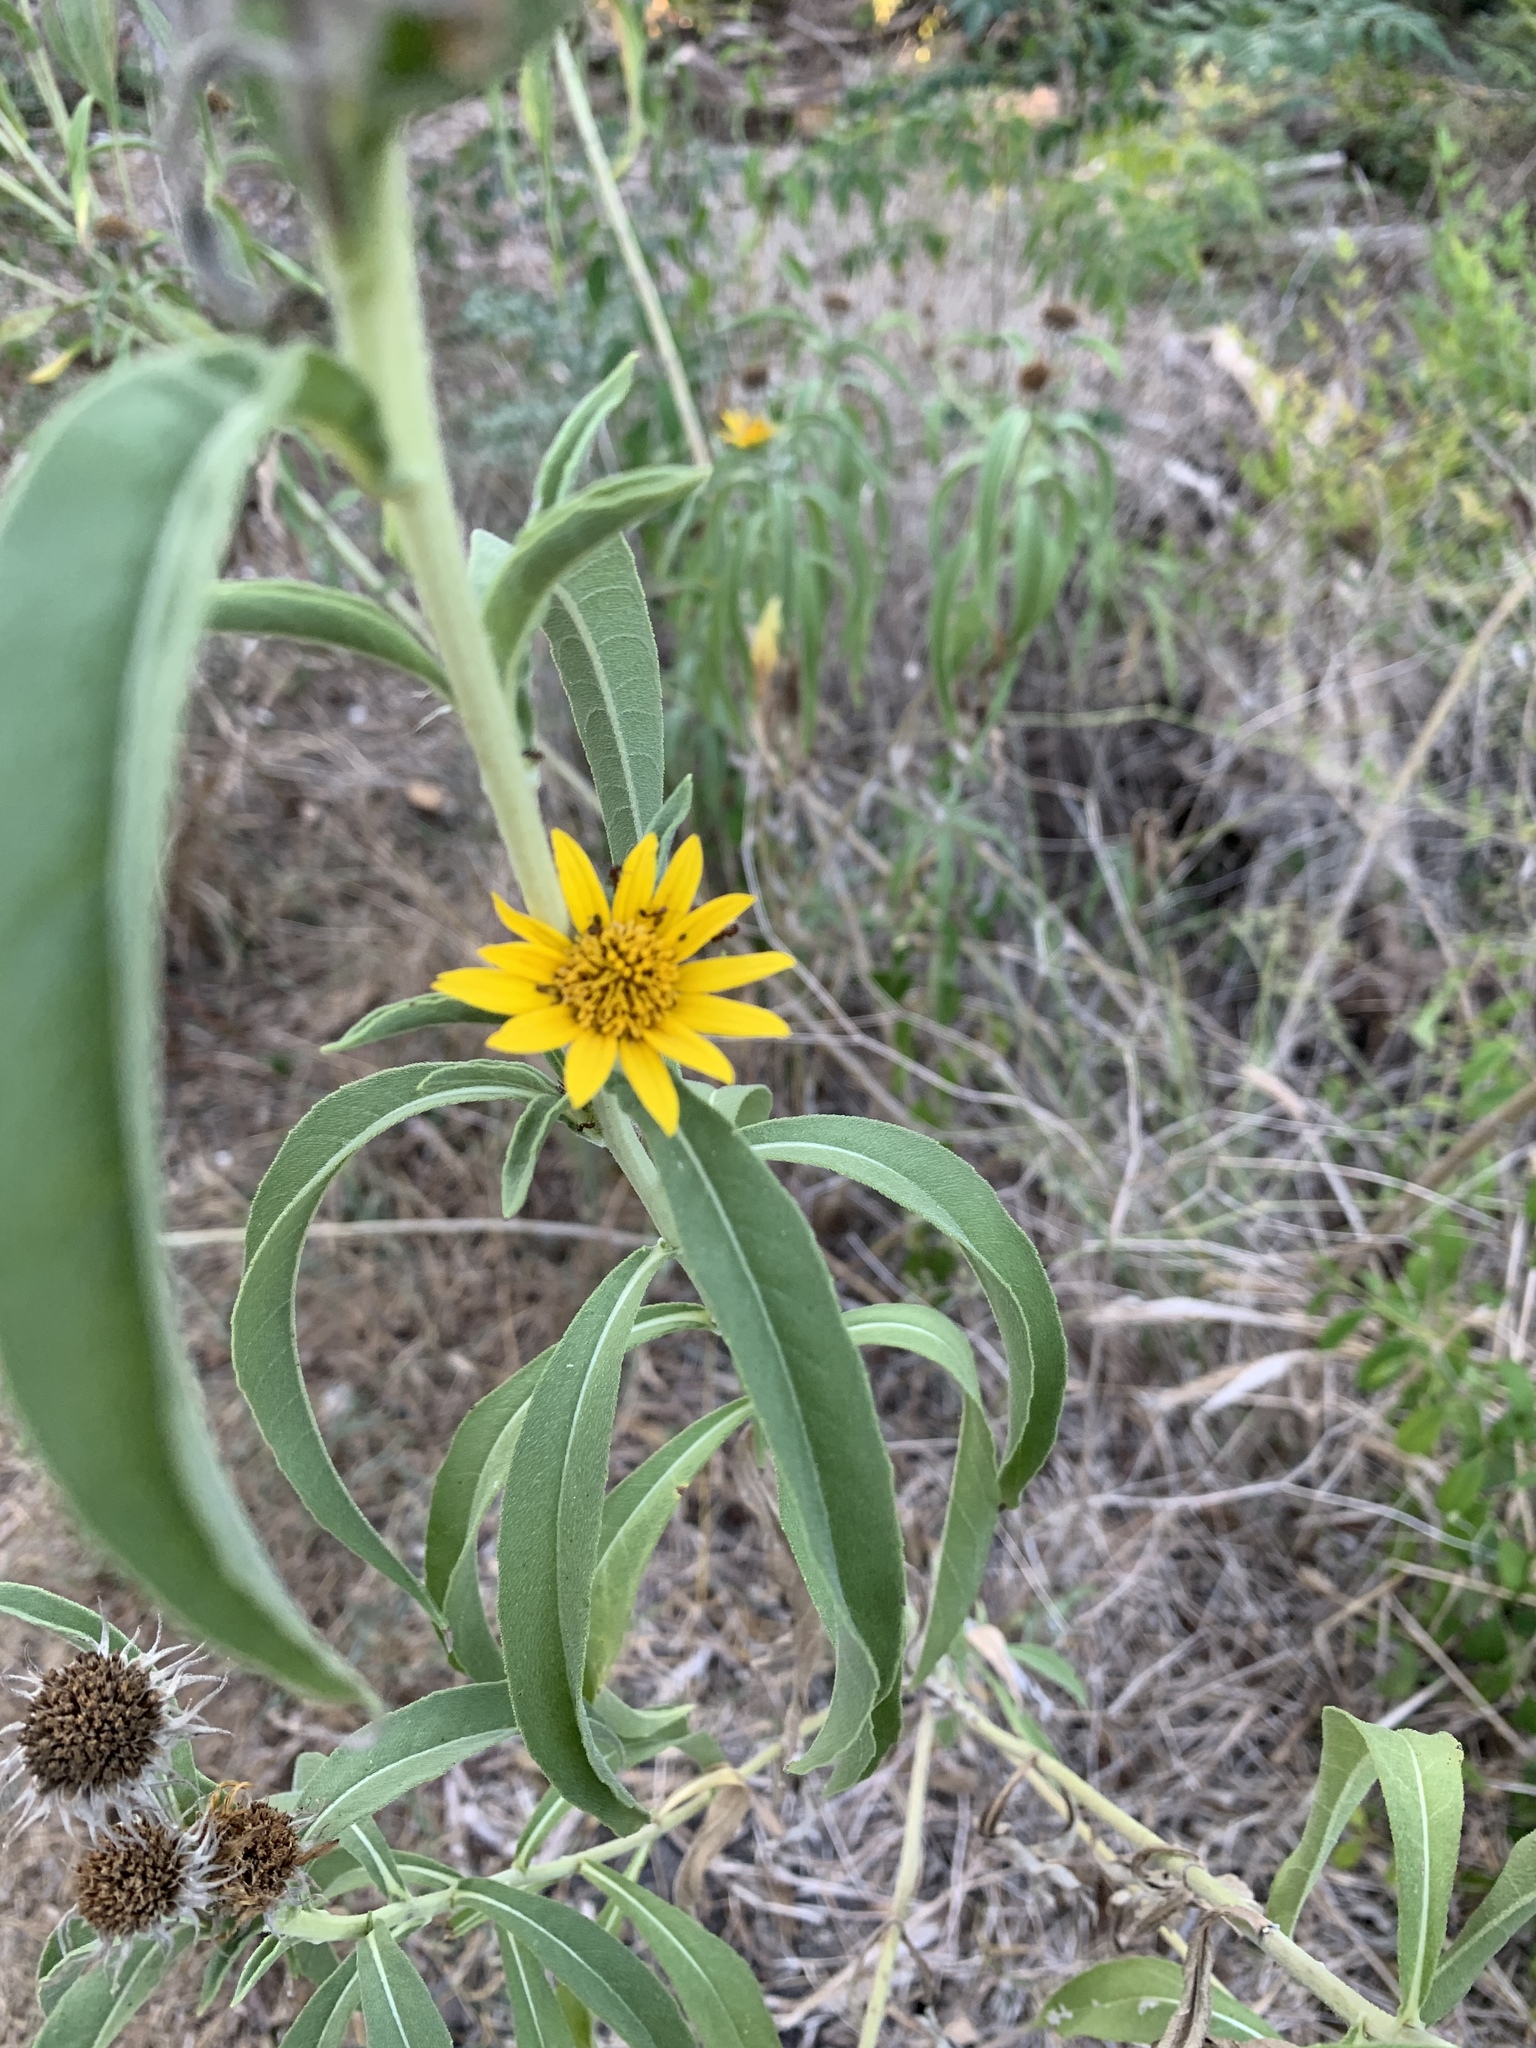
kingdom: Plantae
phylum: Tracheophyta
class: Magnoliopsida
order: Asterales
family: Asteraceae
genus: Helianthus
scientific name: Helianthus maximiliani
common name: Maximilian's sunflower
